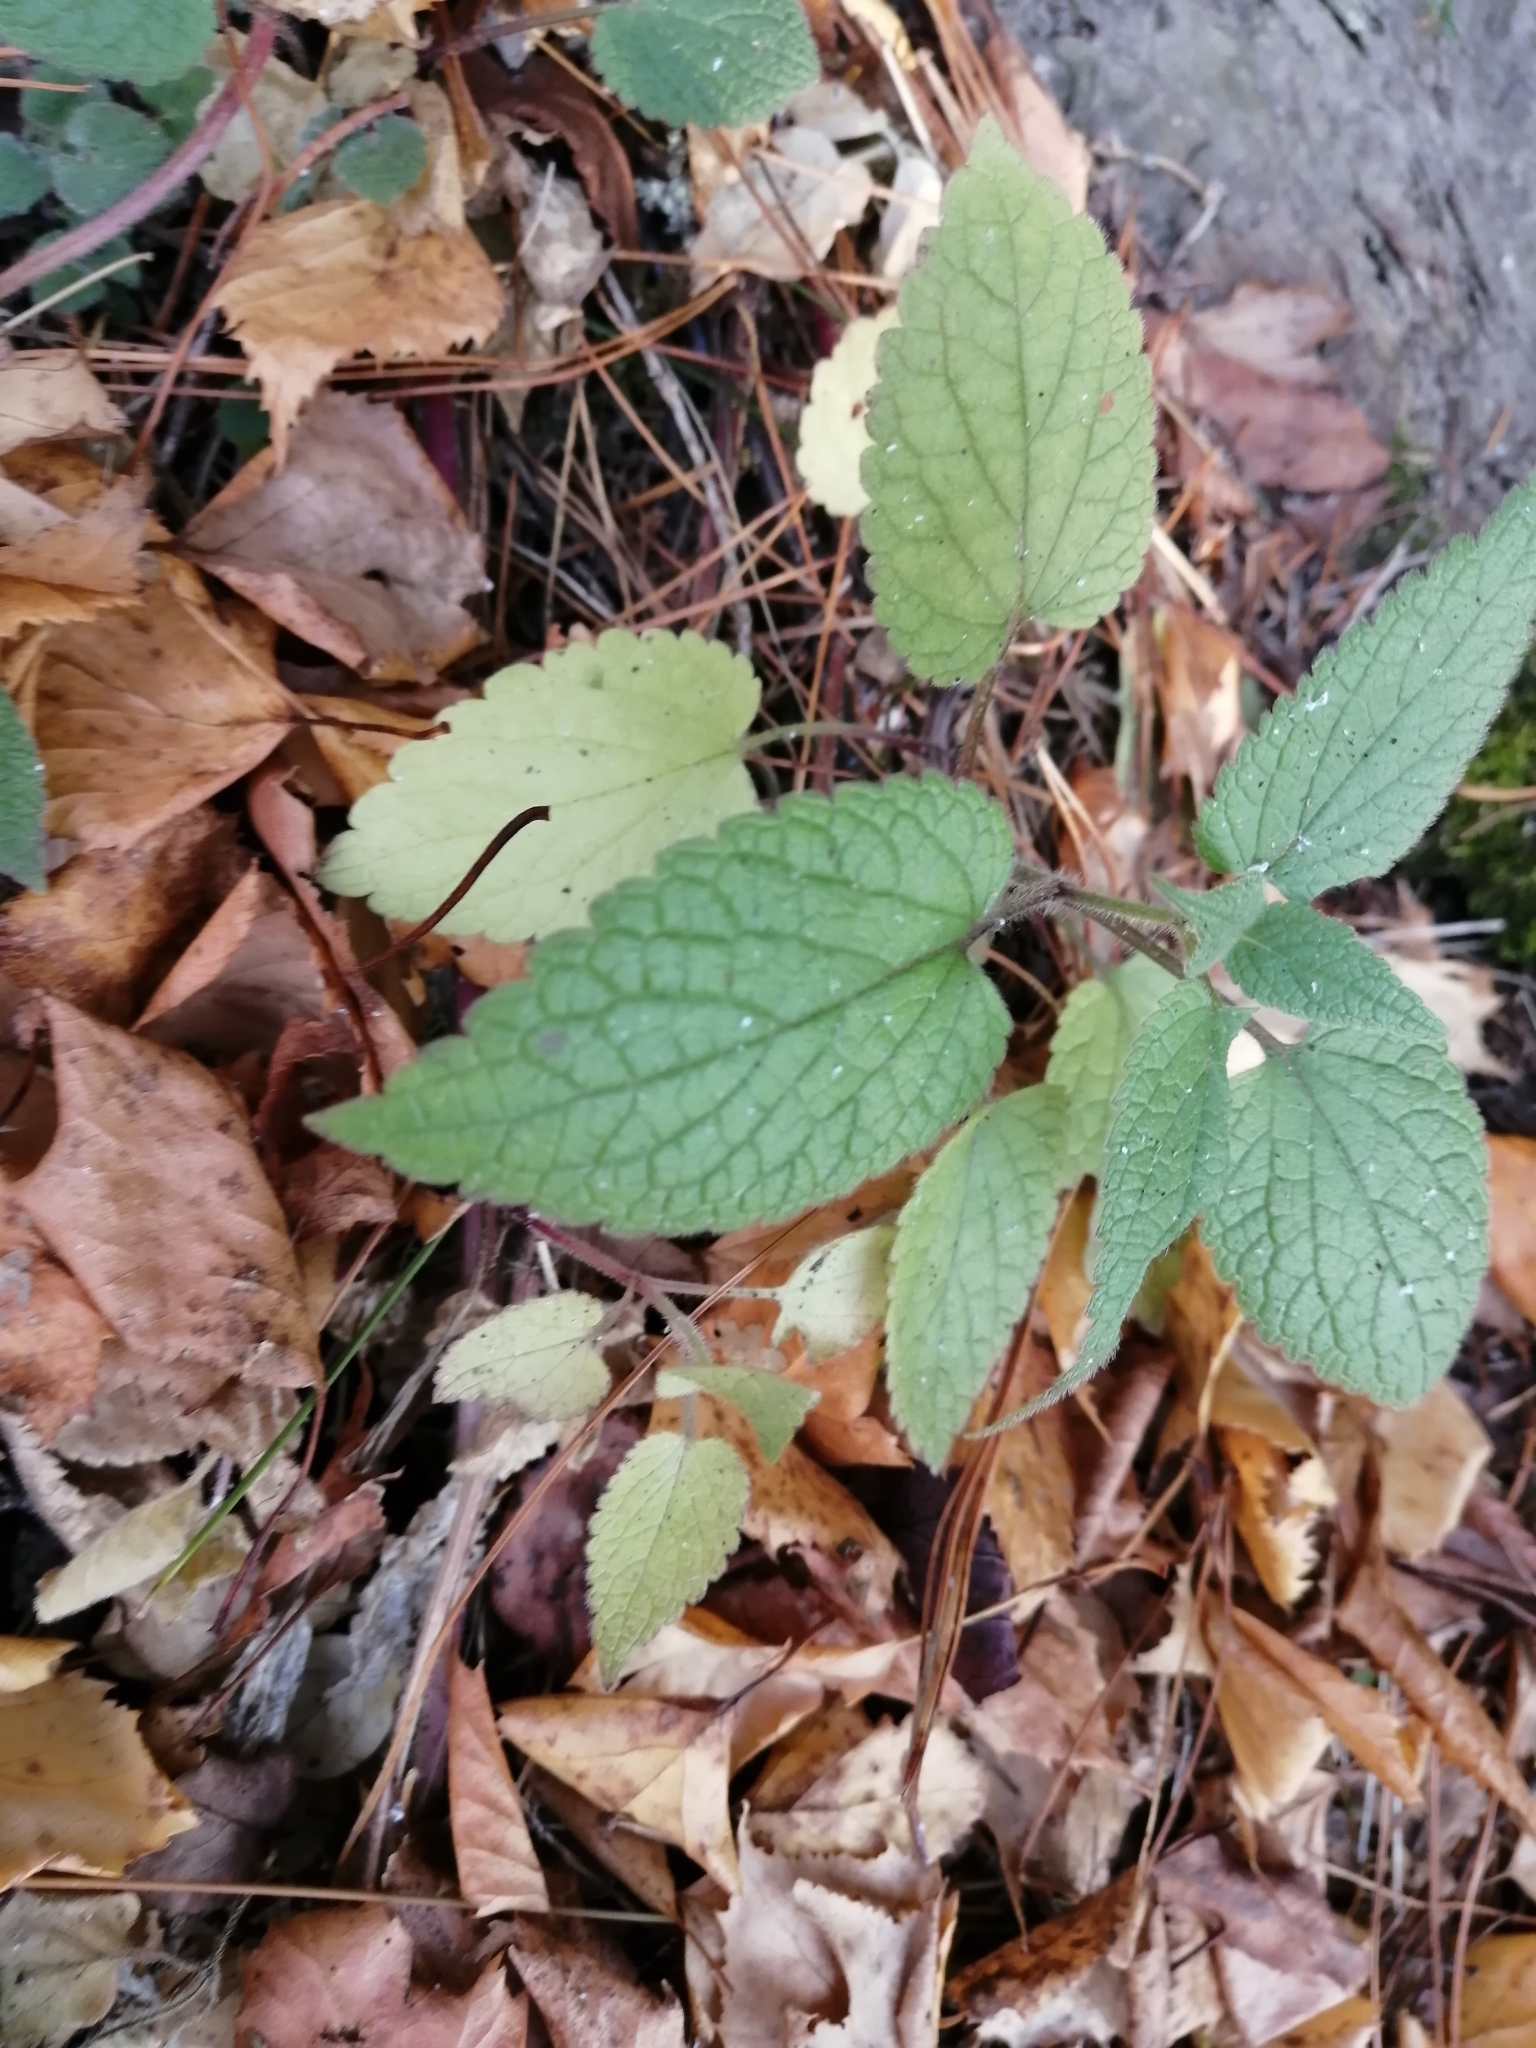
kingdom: Plantae
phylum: Tracheophyta
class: Magnoliopsida
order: Lamiales
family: Lamiaceae
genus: Lamium
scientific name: Lamium album
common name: White dead-nettle
